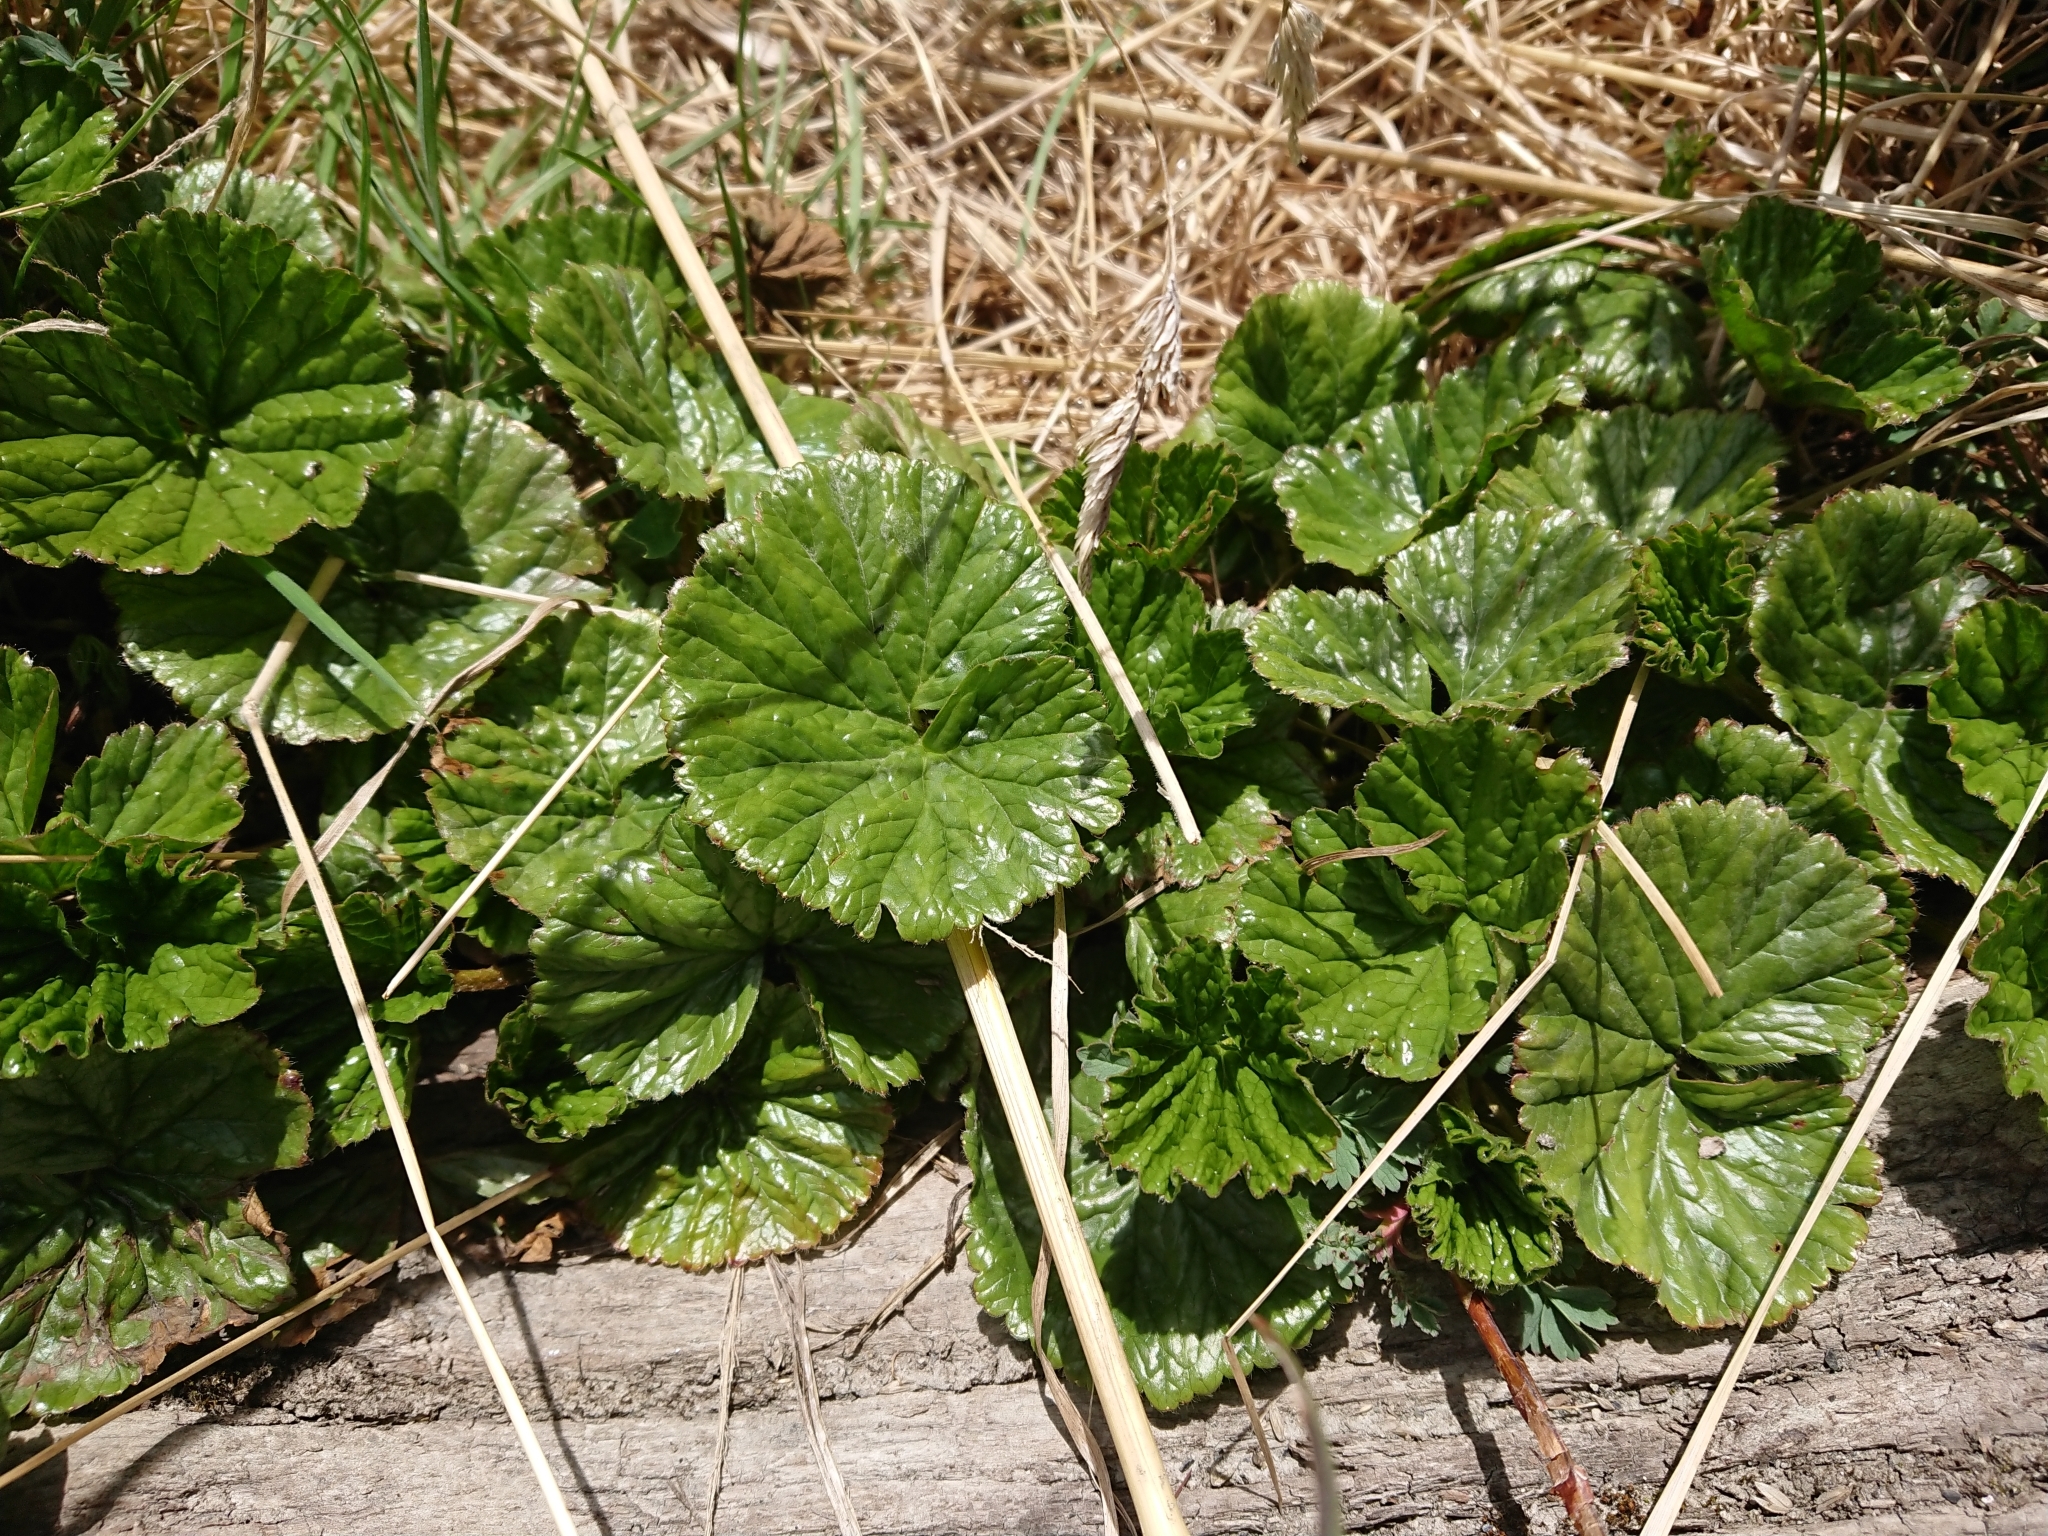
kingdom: Plantae
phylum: Tracheophyta
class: Magnoliopsida
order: Gunnerales
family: Gunneraceae
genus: Gunnera
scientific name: Gunnera magellanica
